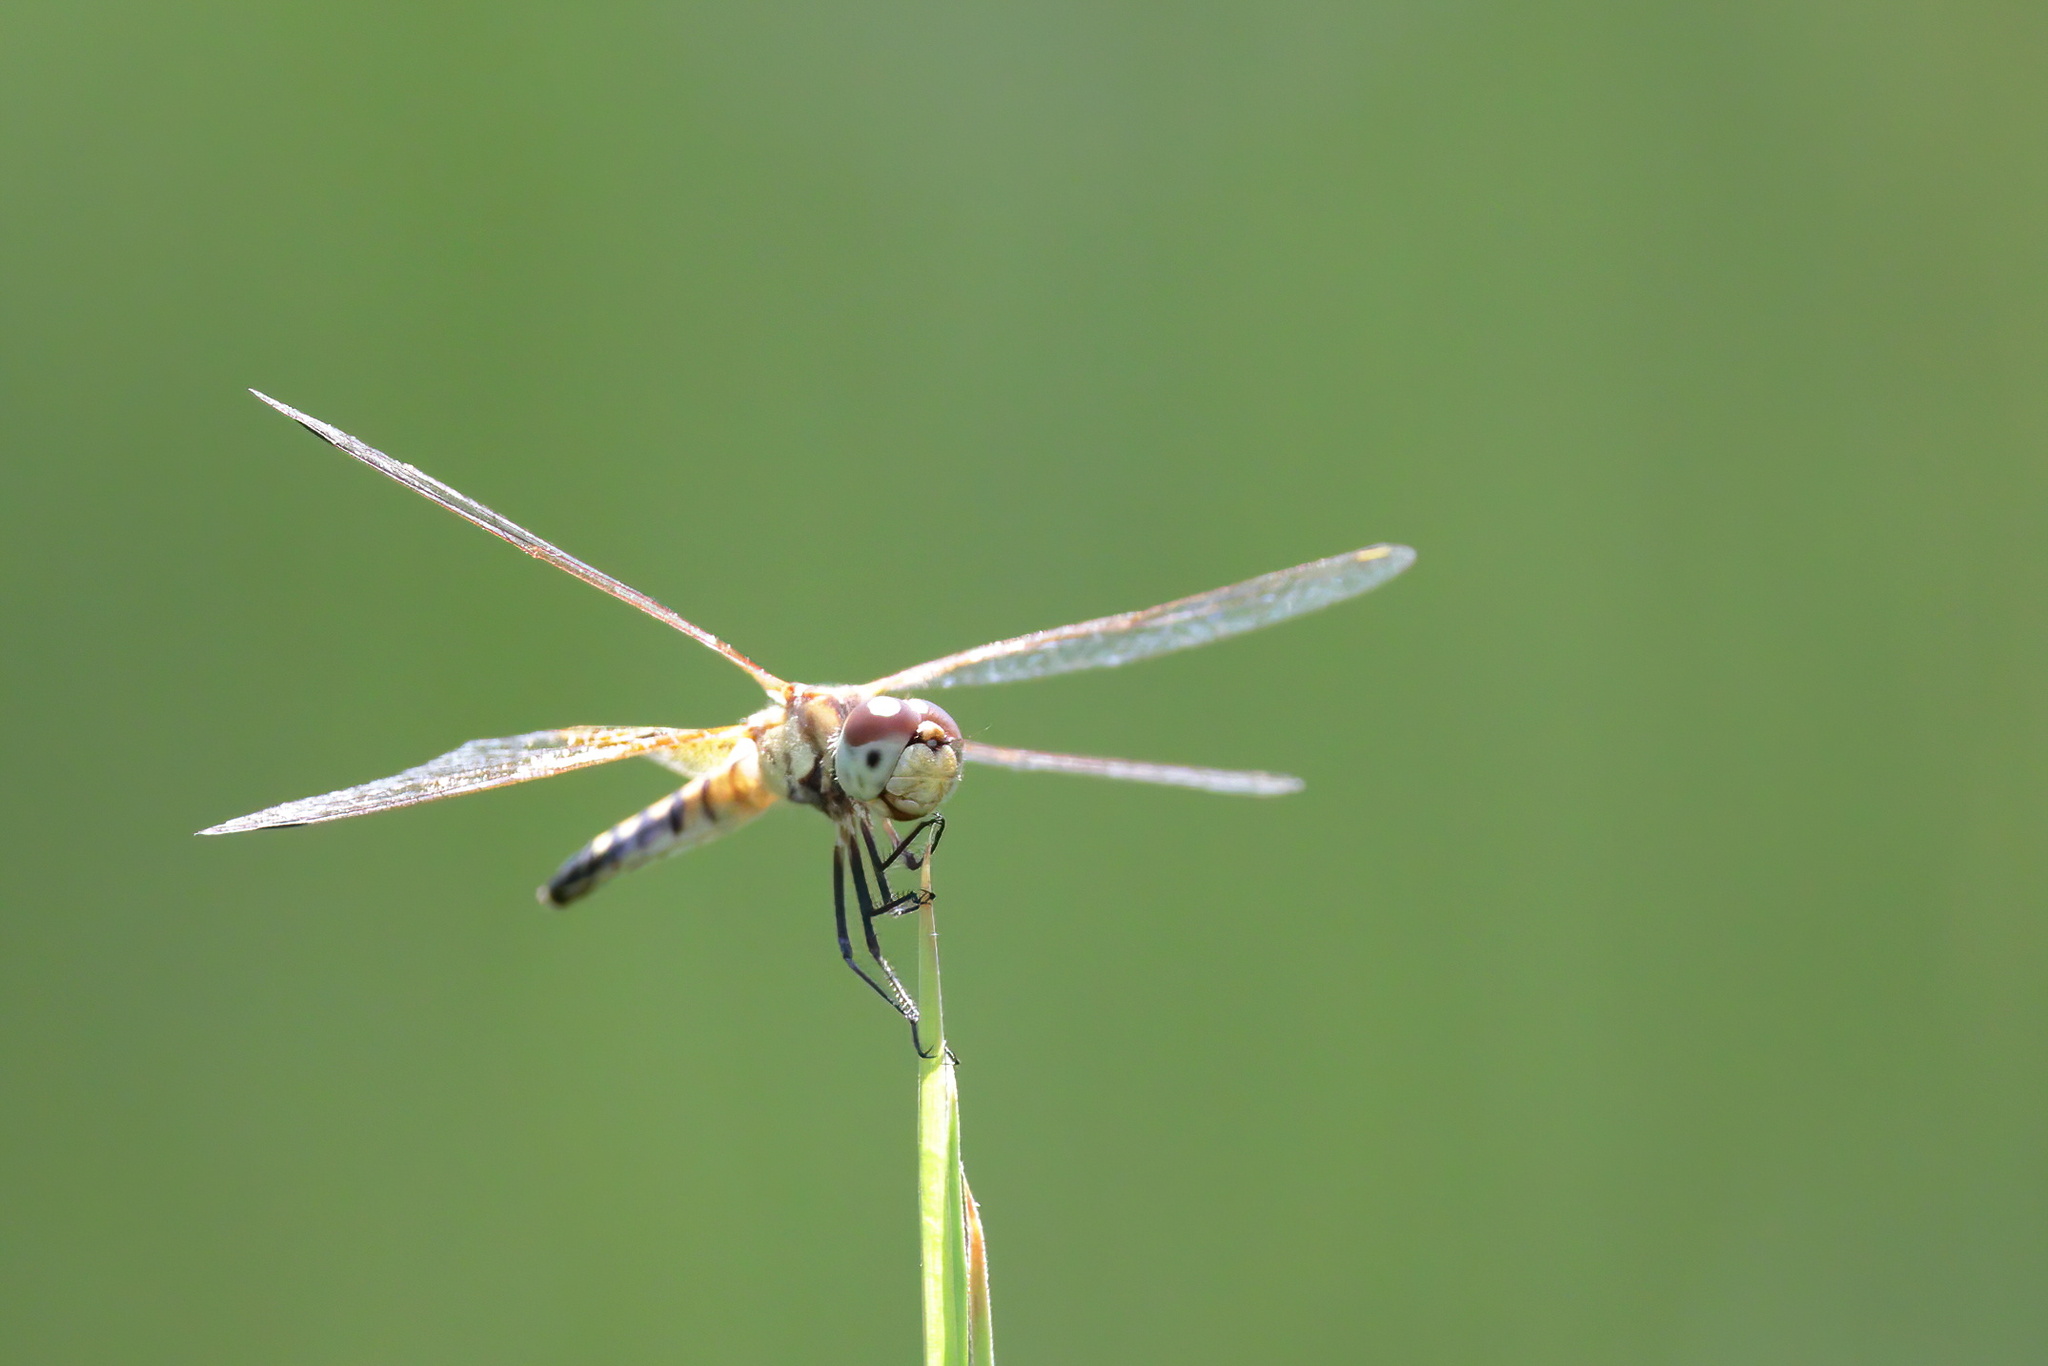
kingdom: Animalia
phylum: Arthropoda
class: Insecta
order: Odonata
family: Libellulidae
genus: Celithemis
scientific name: Celithemis amanda
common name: Amanda's pennant
